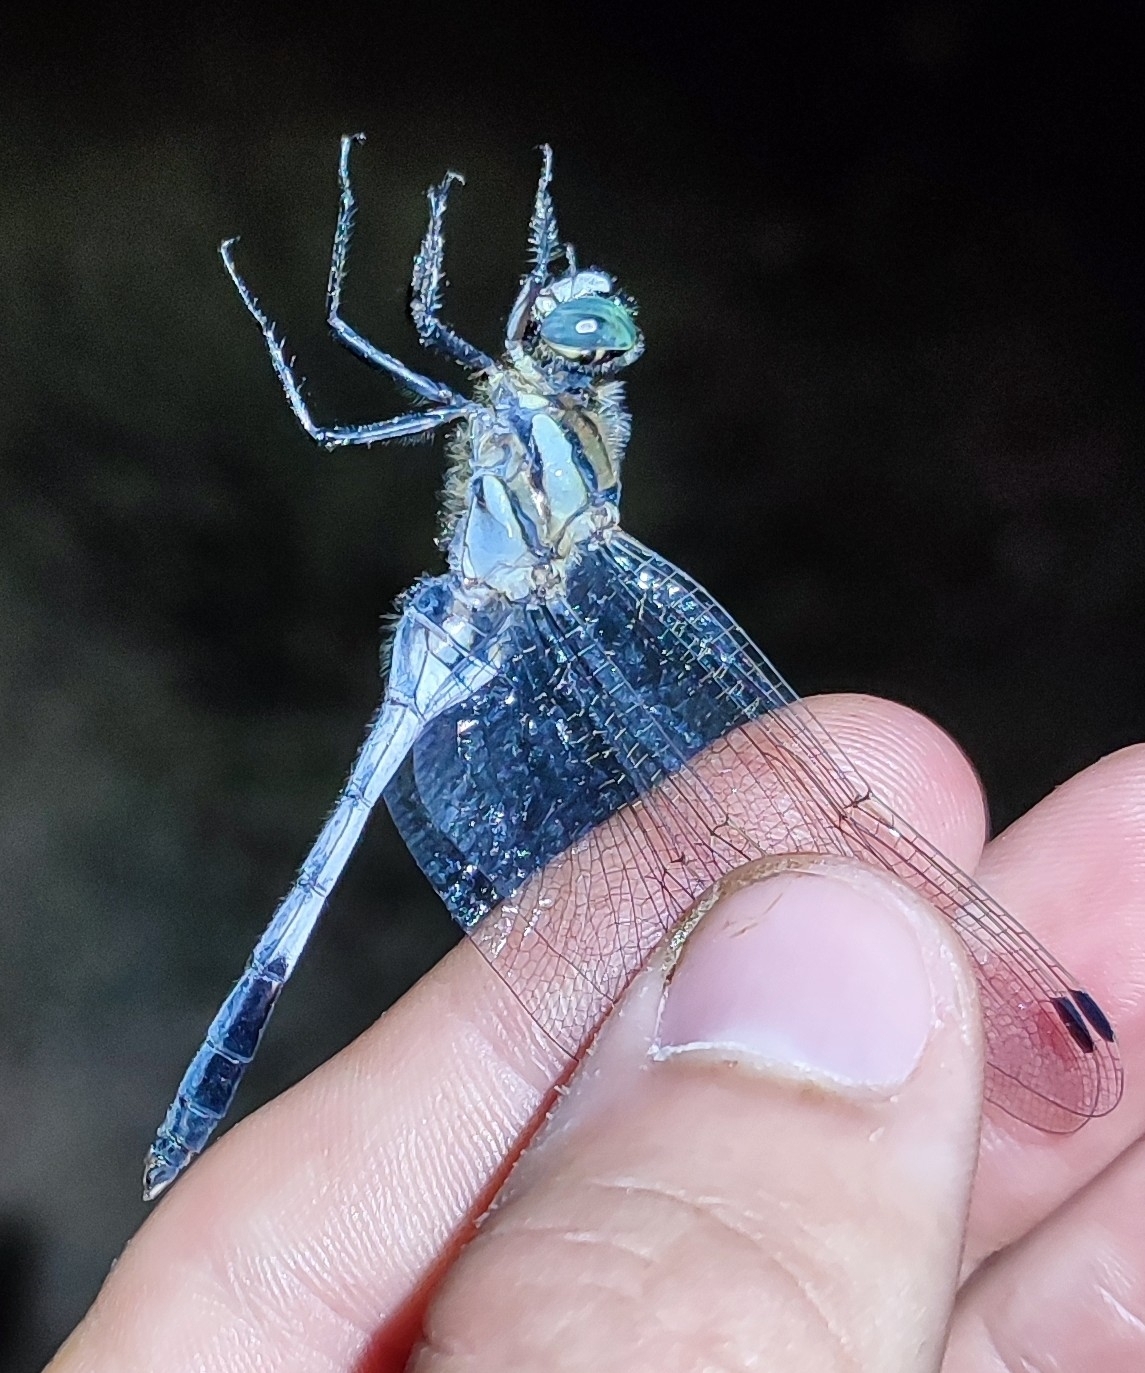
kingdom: Animalia
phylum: Arthropoda
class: Insecta
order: Odonata
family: Libellulidae
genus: Orthetrum
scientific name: Orthetrum albistylum
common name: White-tailed skimmer
